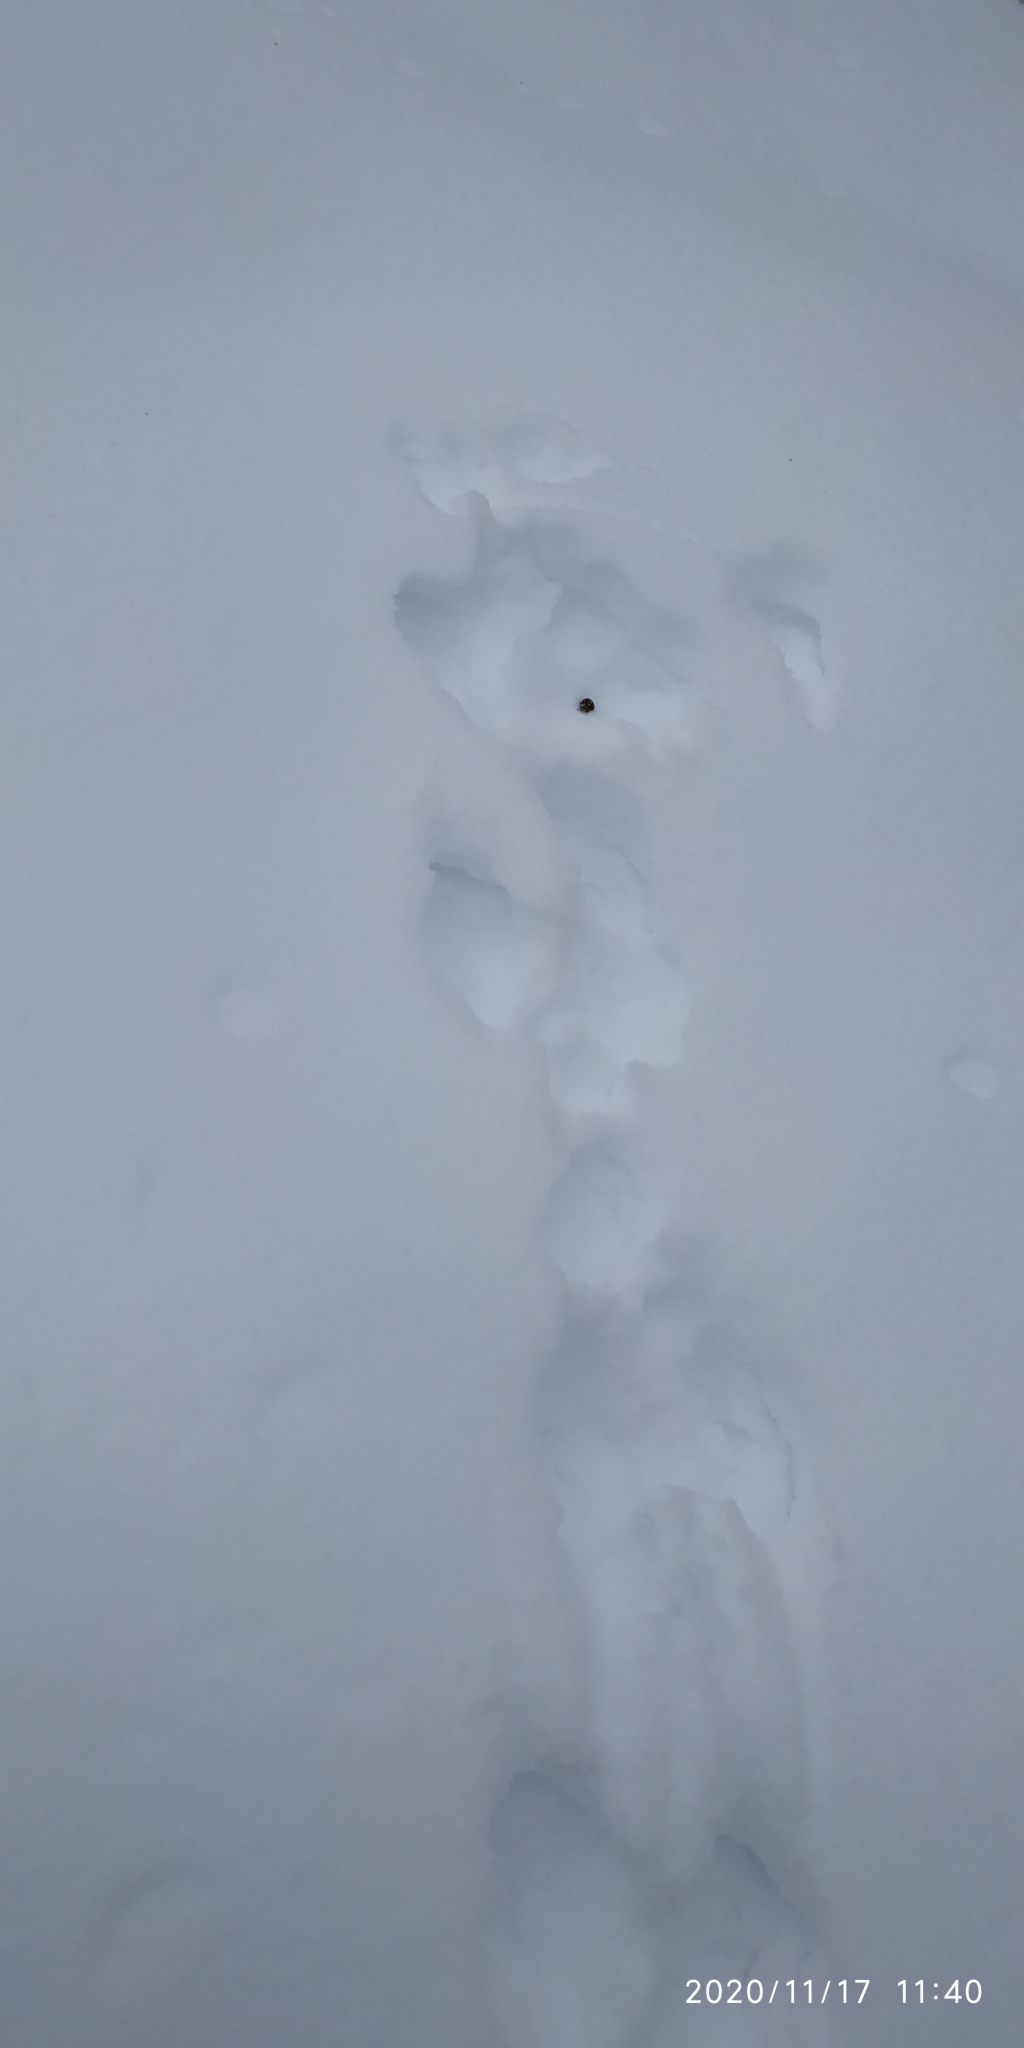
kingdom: Animalia
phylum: Chordata
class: Mammalia
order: Lagomorpha
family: Leporidae
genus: Lepus
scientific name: Lepus timidus
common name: Mountain hare
